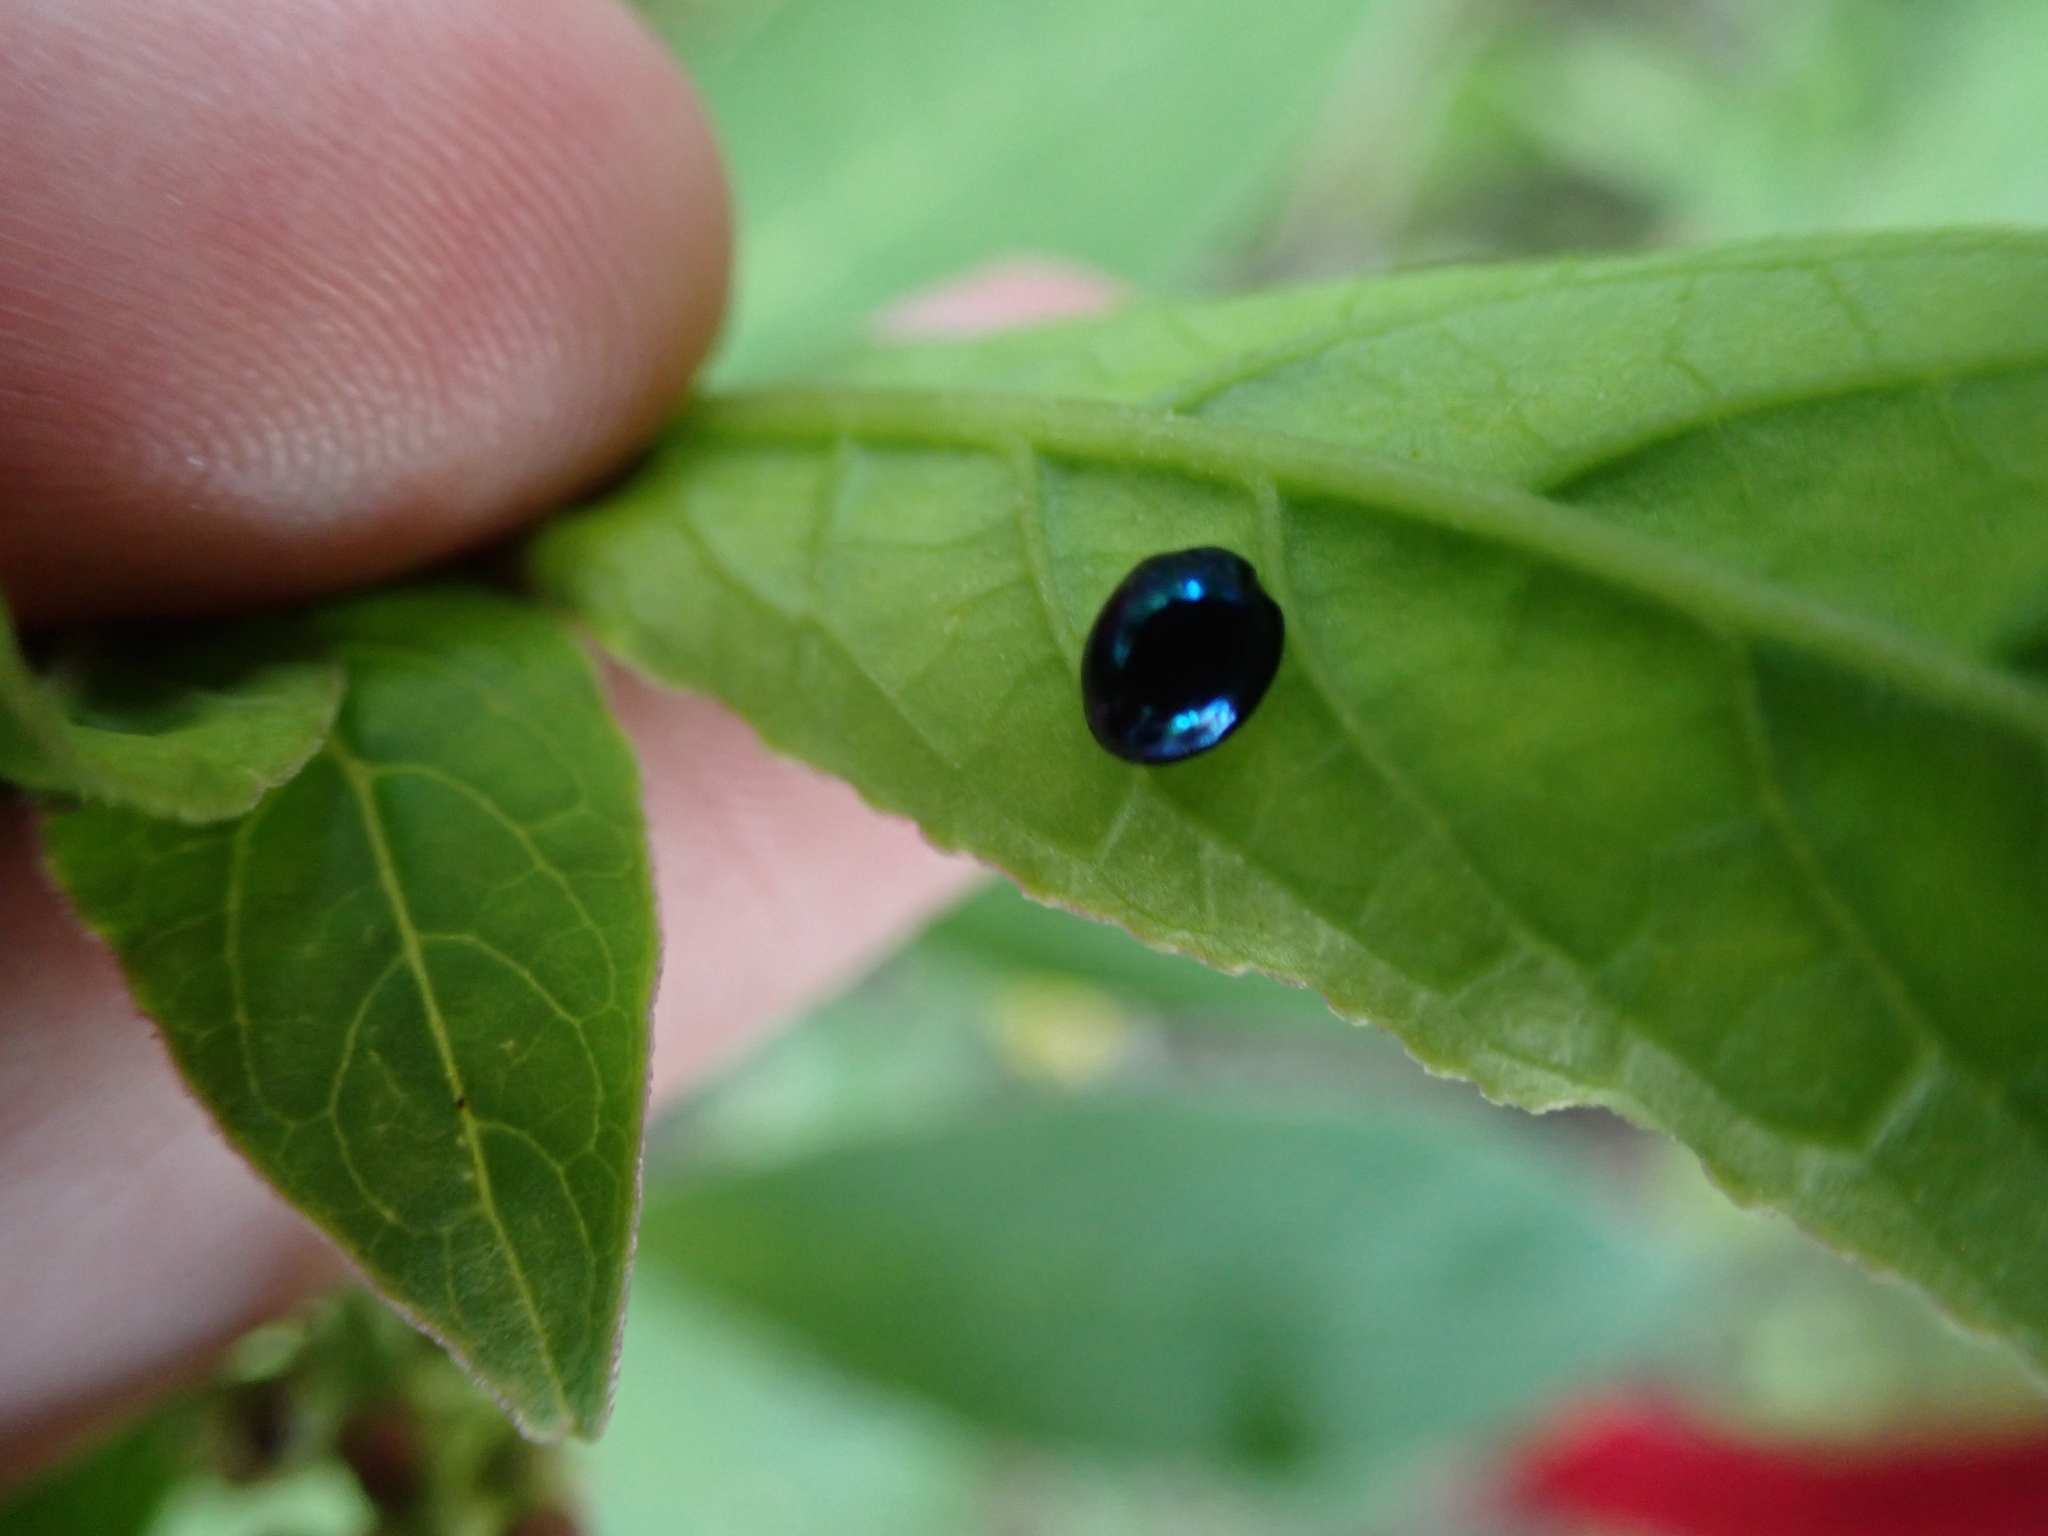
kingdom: Animalia
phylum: Arthropoda
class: Insecta
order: Coleoptera
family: Coccinellidae
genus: Halmus
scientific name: Halmus chalybeus
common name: Steel blue ladybird beetle
